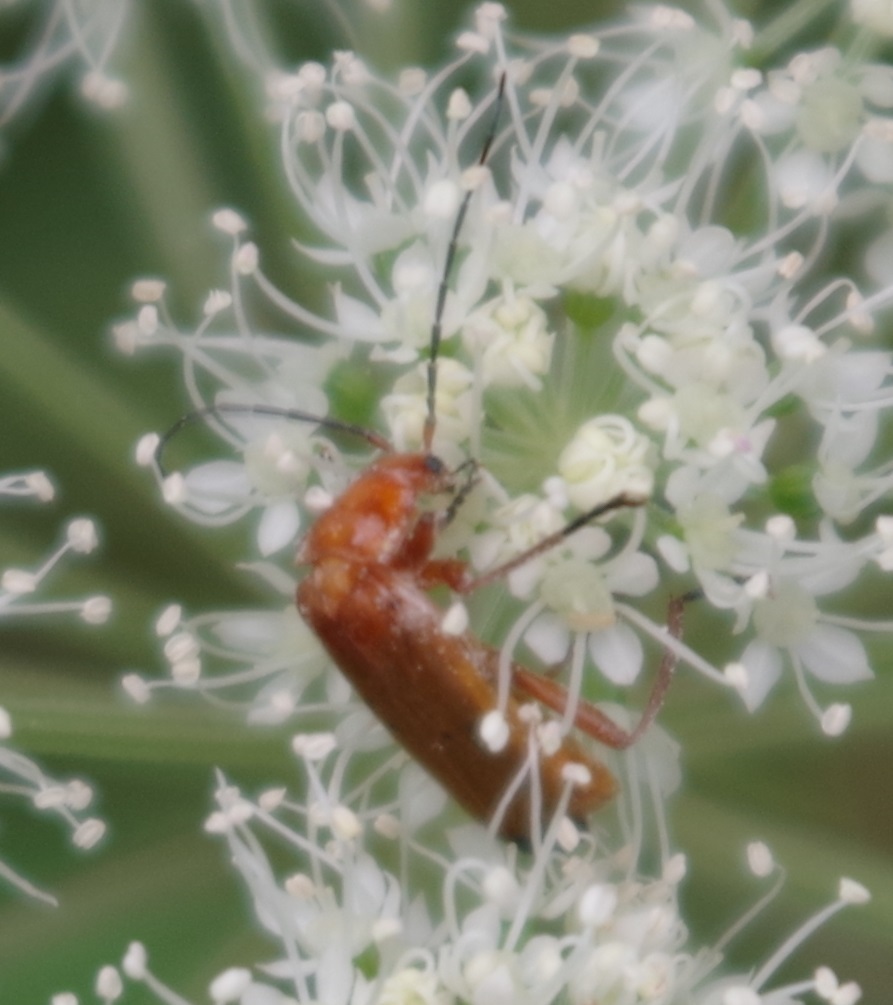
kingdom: Animalia
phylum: Arthropoda
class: Insecta
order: Coleoptera
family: Cantharidae
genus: Rhagonycha
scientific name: Rhagonycha fulva
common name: Common red soldier beetle
